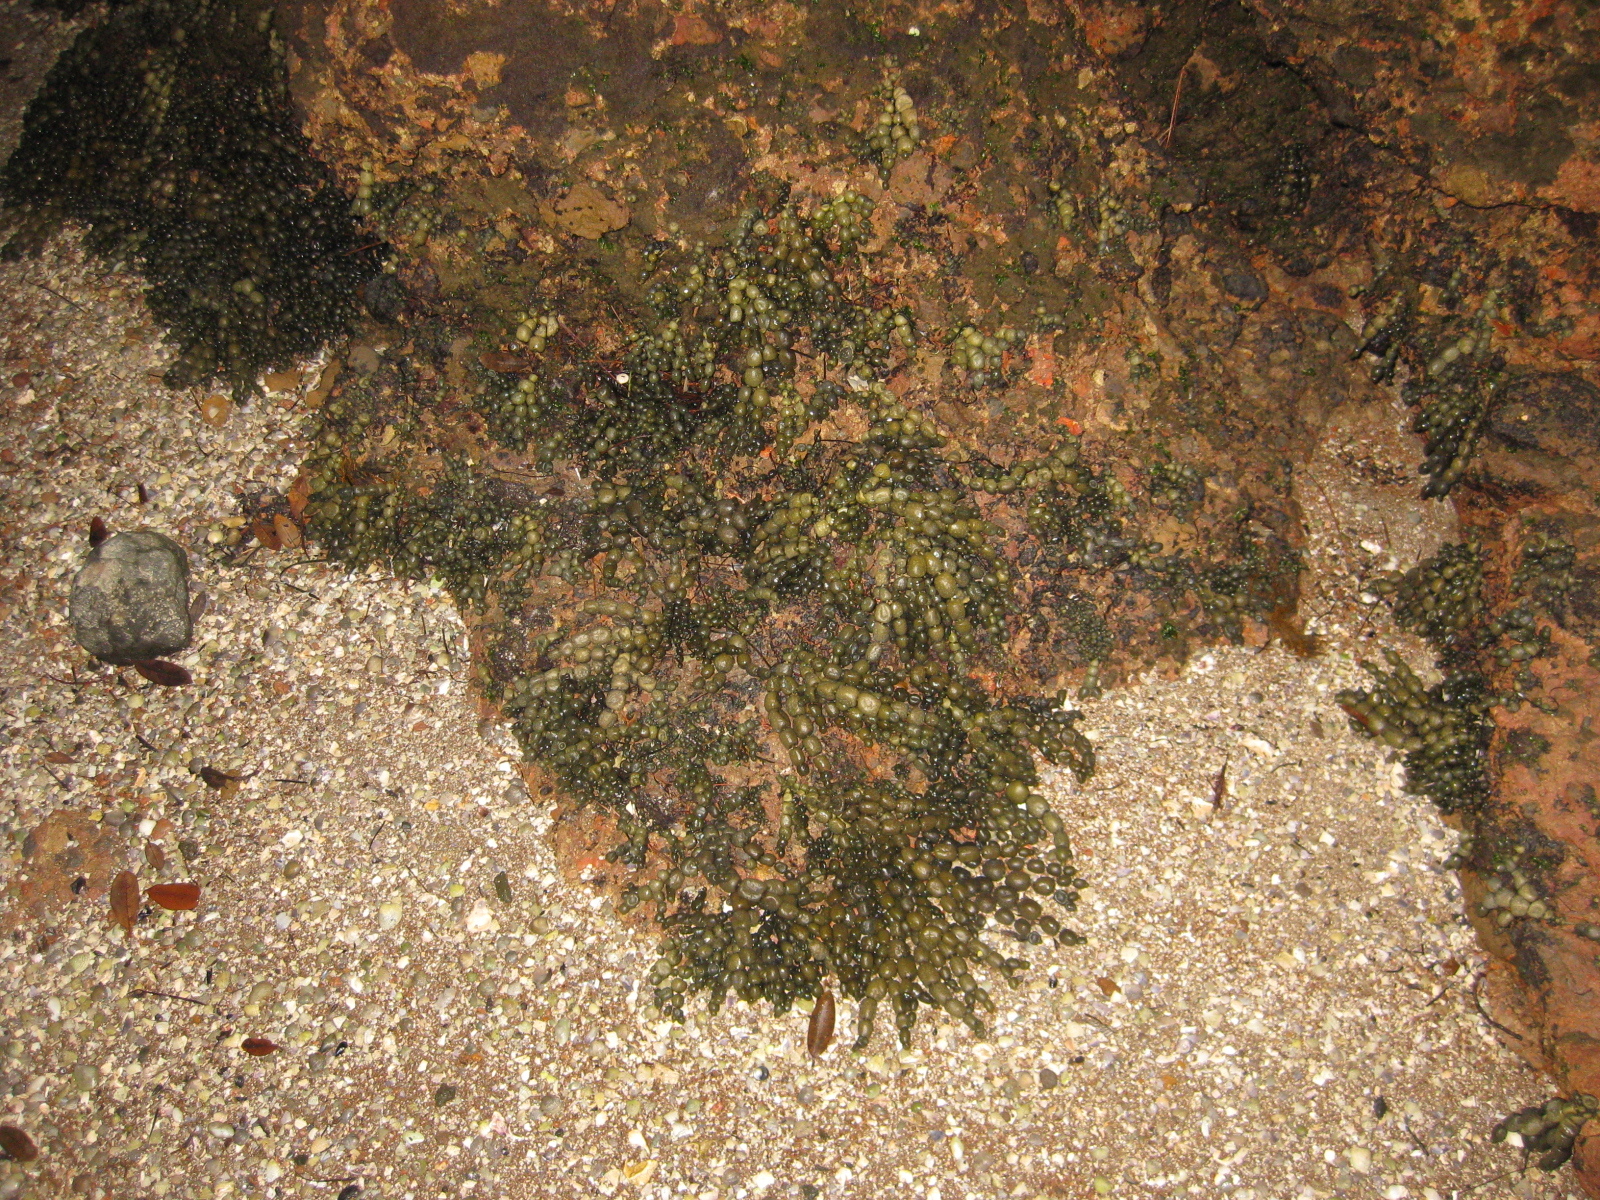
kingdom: Chromista
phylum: Ochrophyta
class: Phaeophyceae
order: Fucales
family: Hormosiraceae
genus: Hormosira
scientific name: Hormosira banksii
